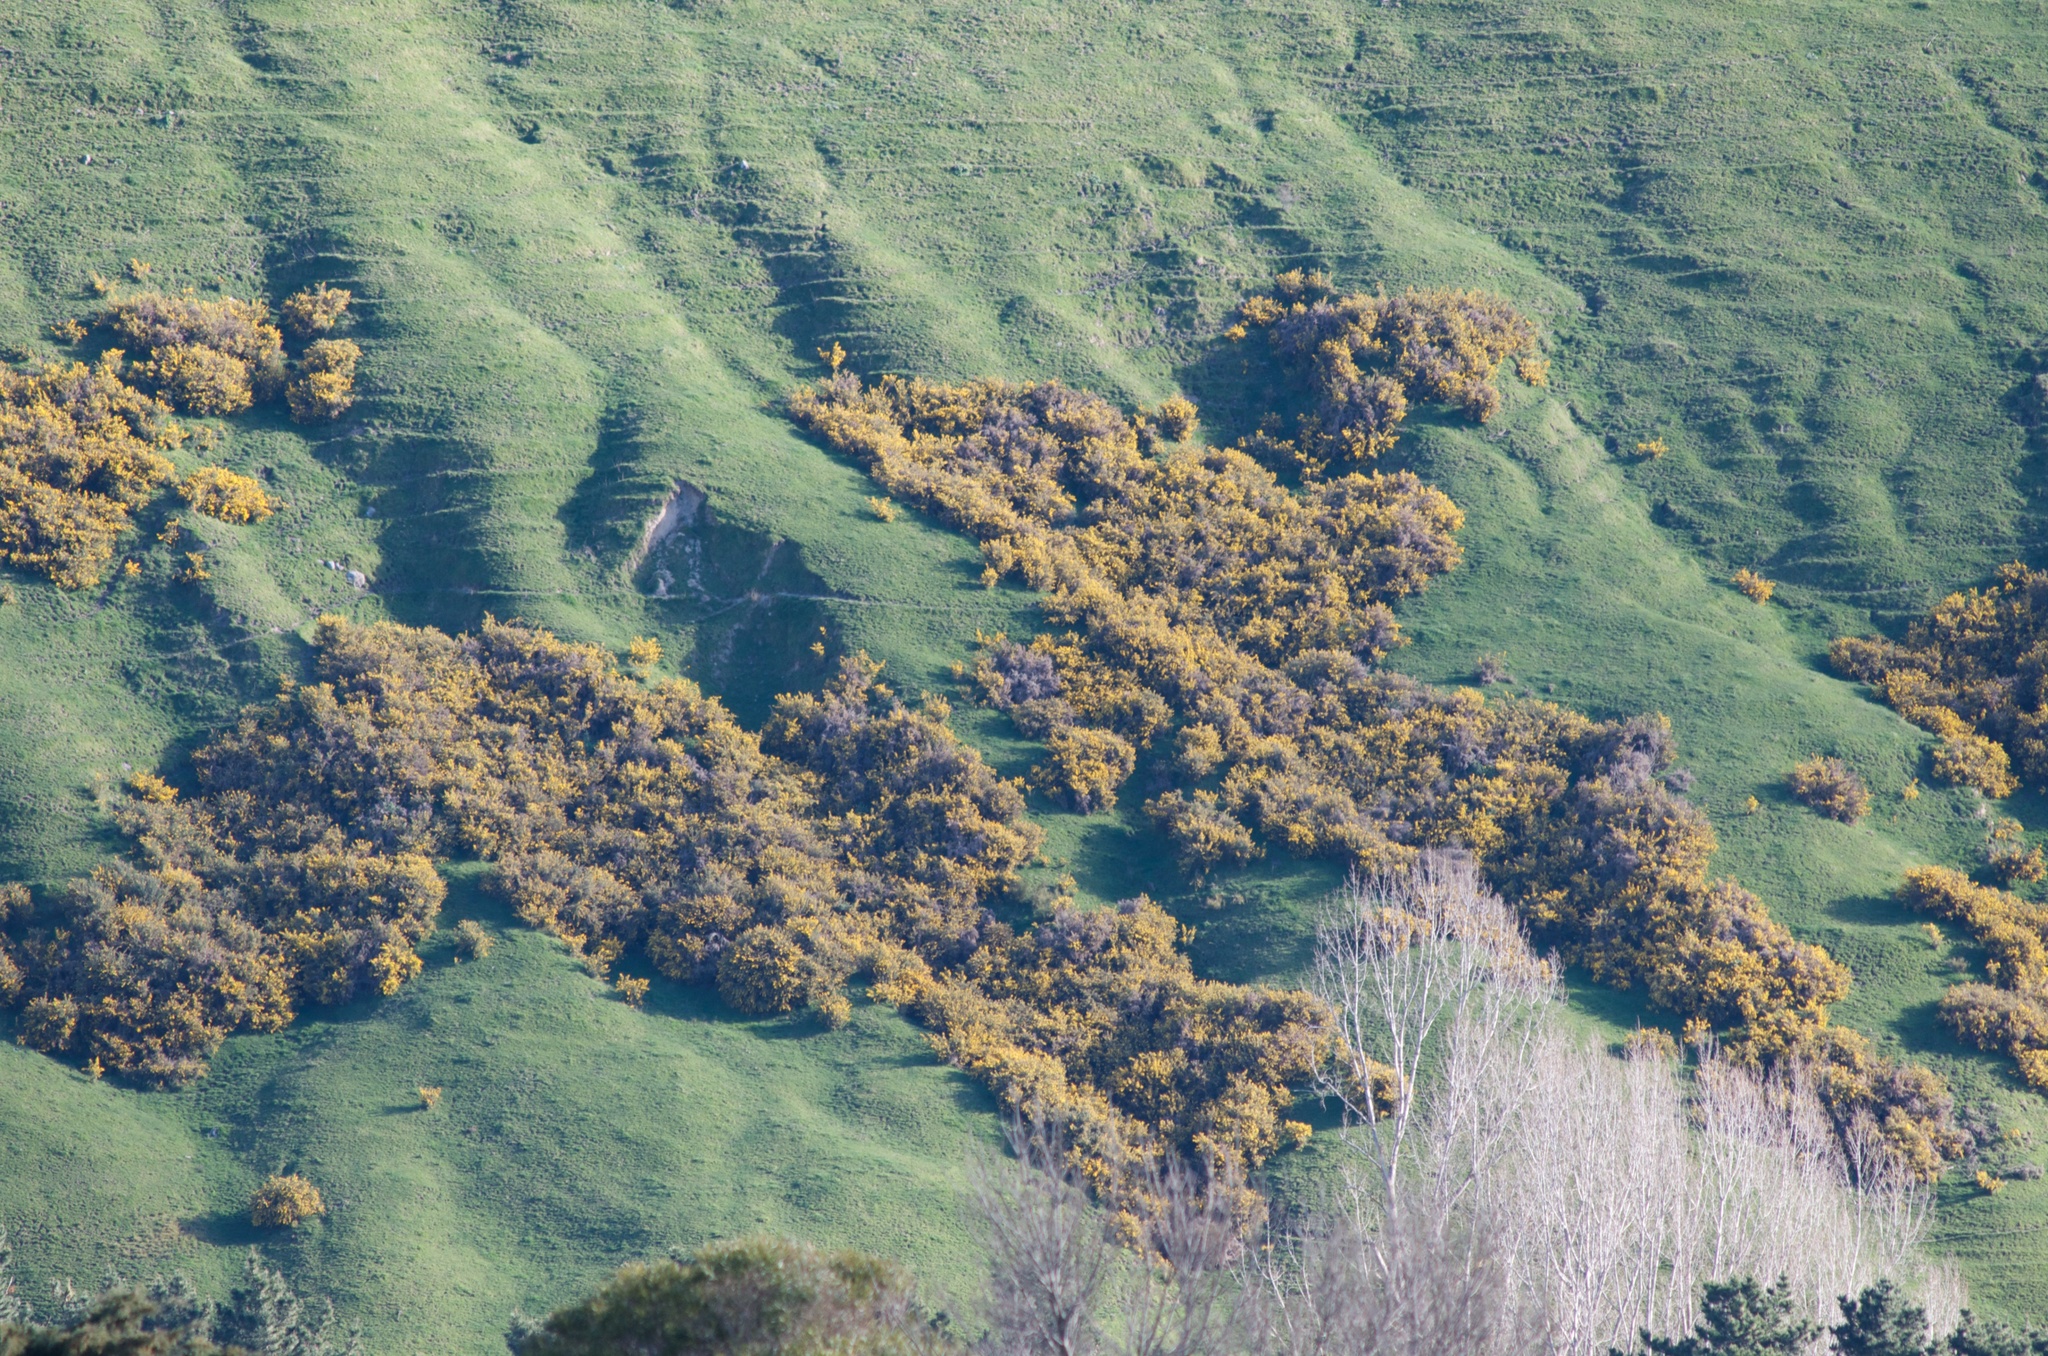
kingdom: Plantae
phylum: Tracheophyta
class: Magnoliopsida
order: Fabales
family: Fabaceae
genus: Ulex
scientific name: Ulex europaeus
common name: Common gorse
